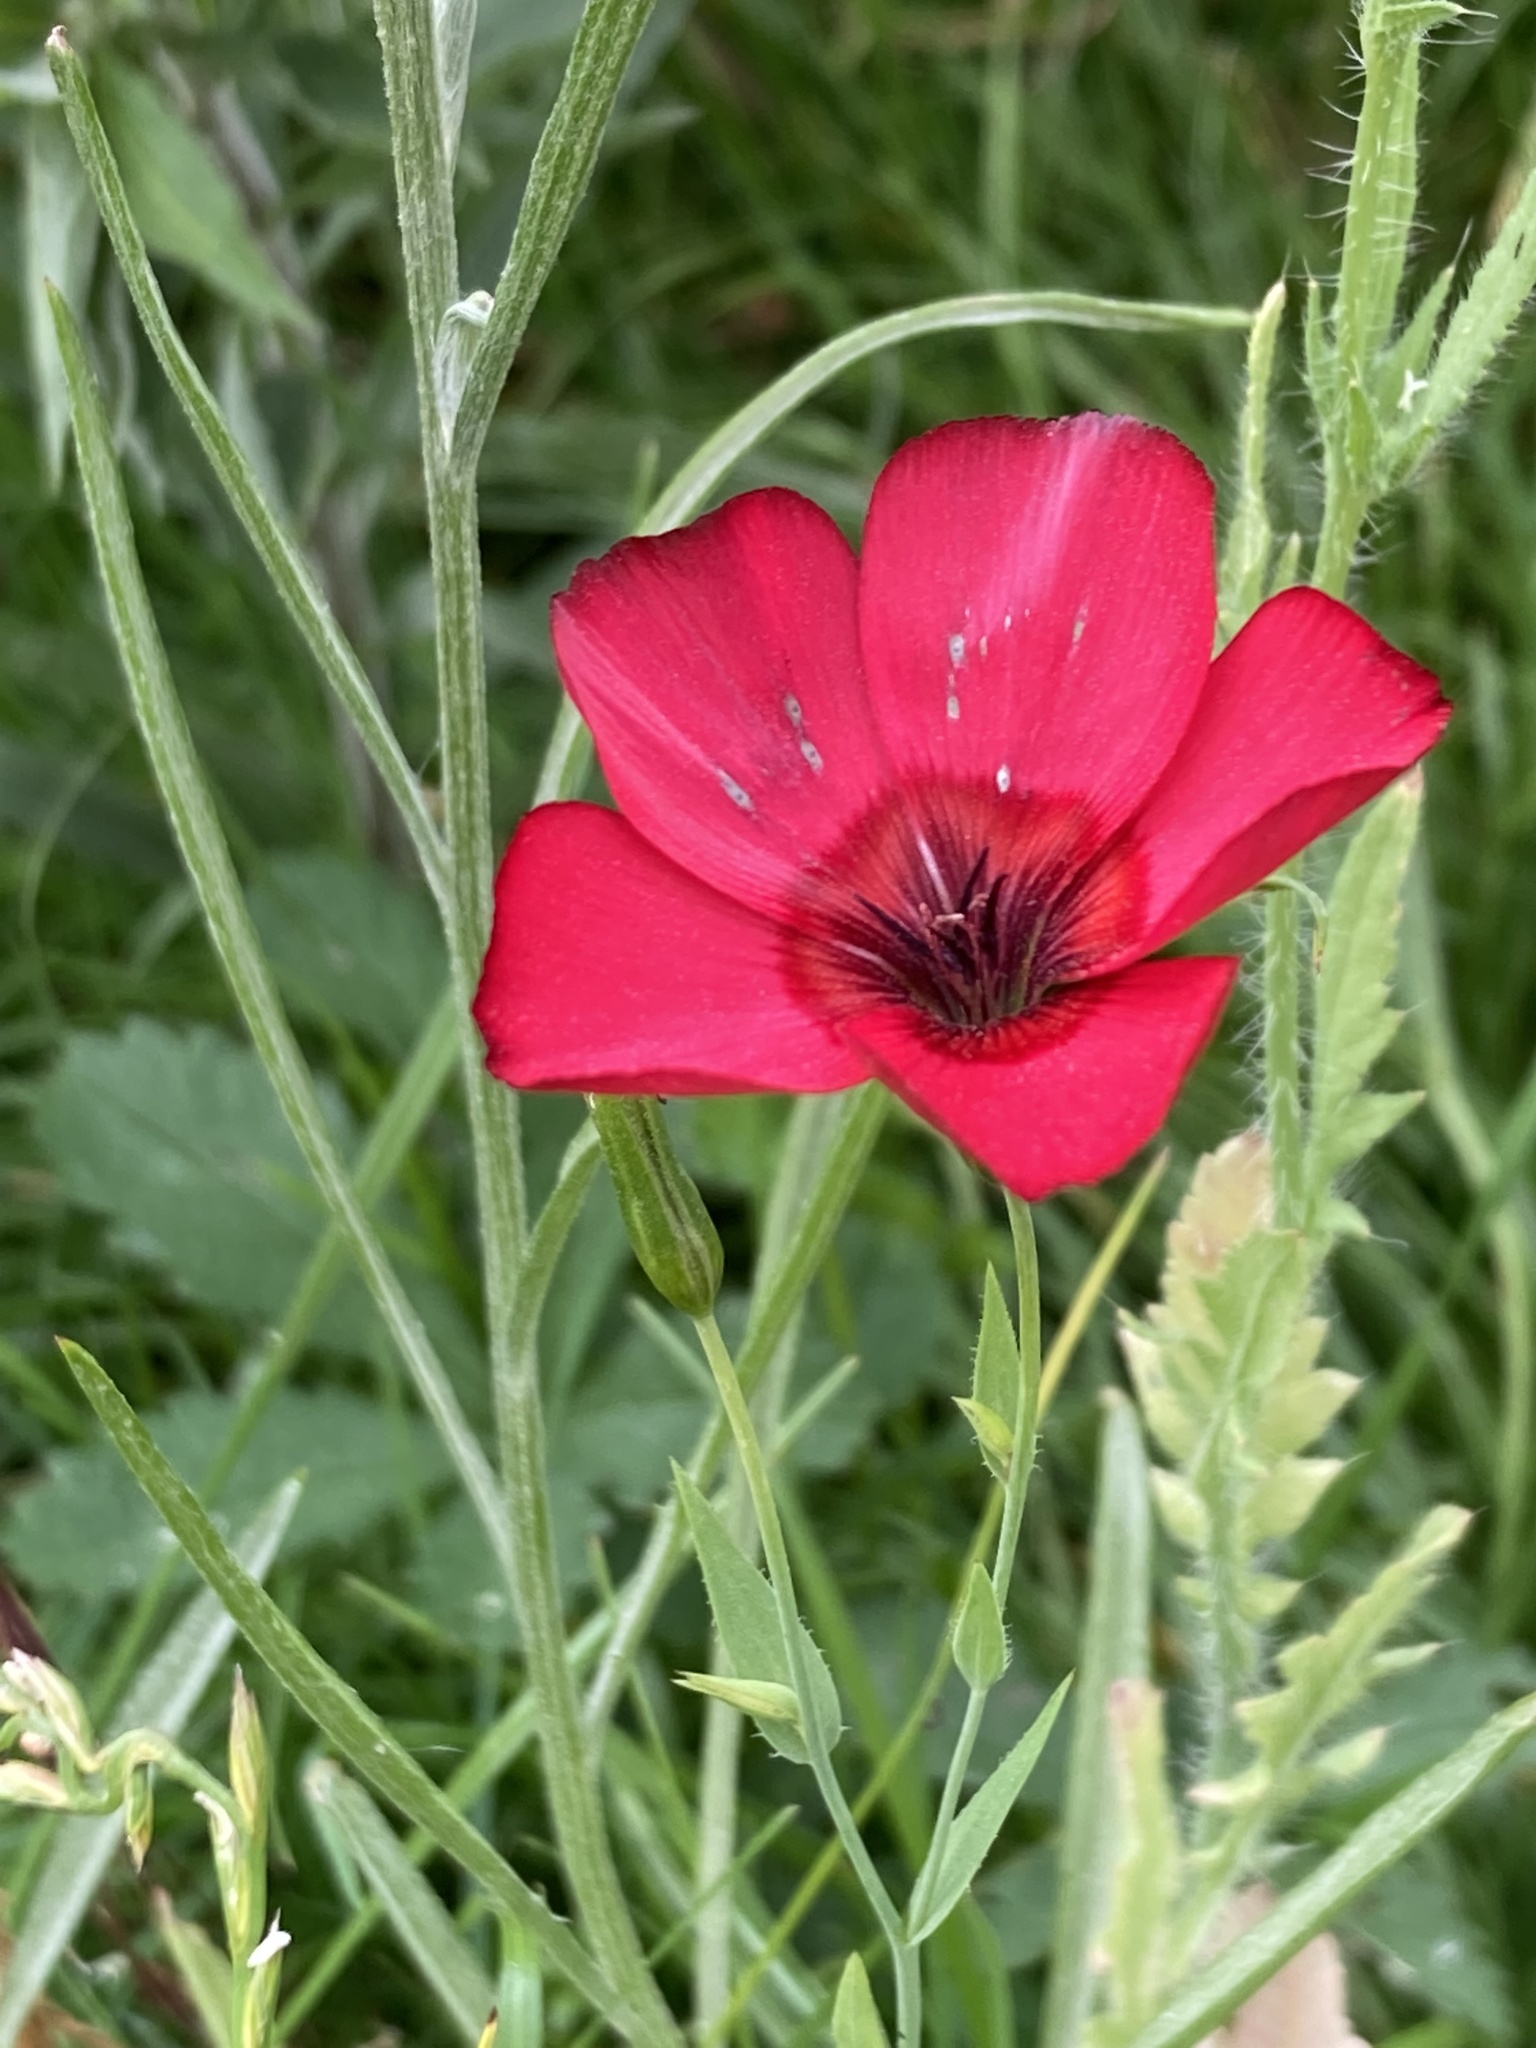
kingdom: Plantae
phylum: Tracheophyta
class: Magnoliopsida
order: Malpighiales
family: Linaceae
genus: Linum
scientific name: Linum grandiflorum
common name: Crimson flax
